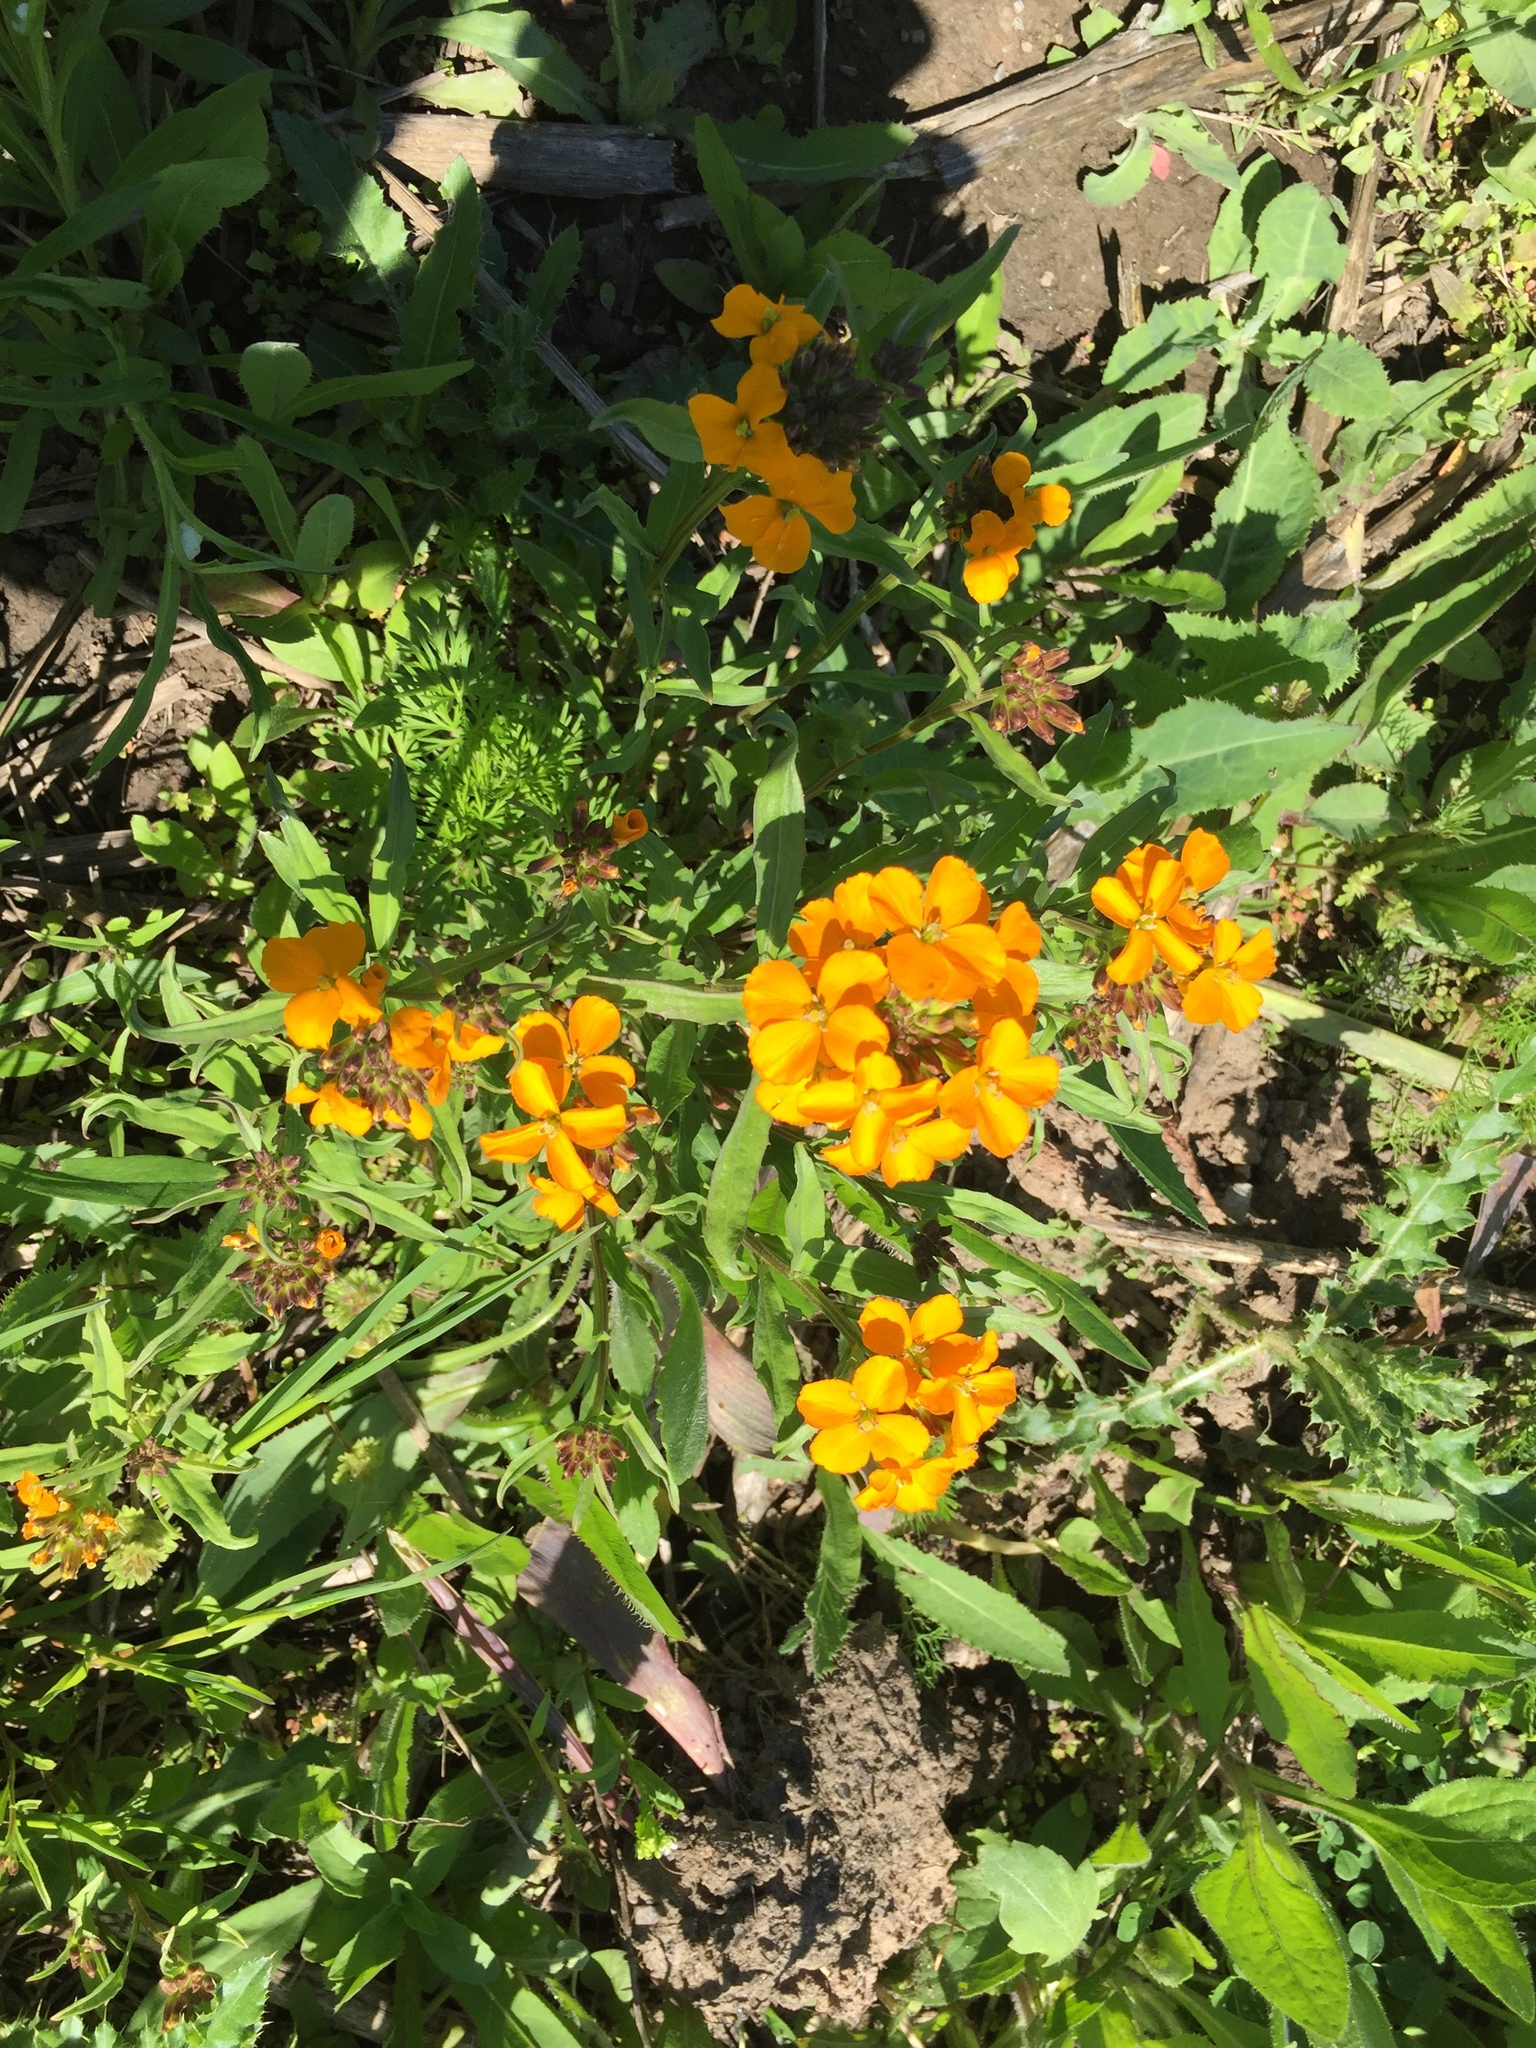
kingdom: Plantae
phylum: Tracheophyta
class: Magnoliopsida
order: Brassicales
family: Brassicaceae
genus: Erysimum
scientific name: Erysimum capitatum
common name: Western wallflower
